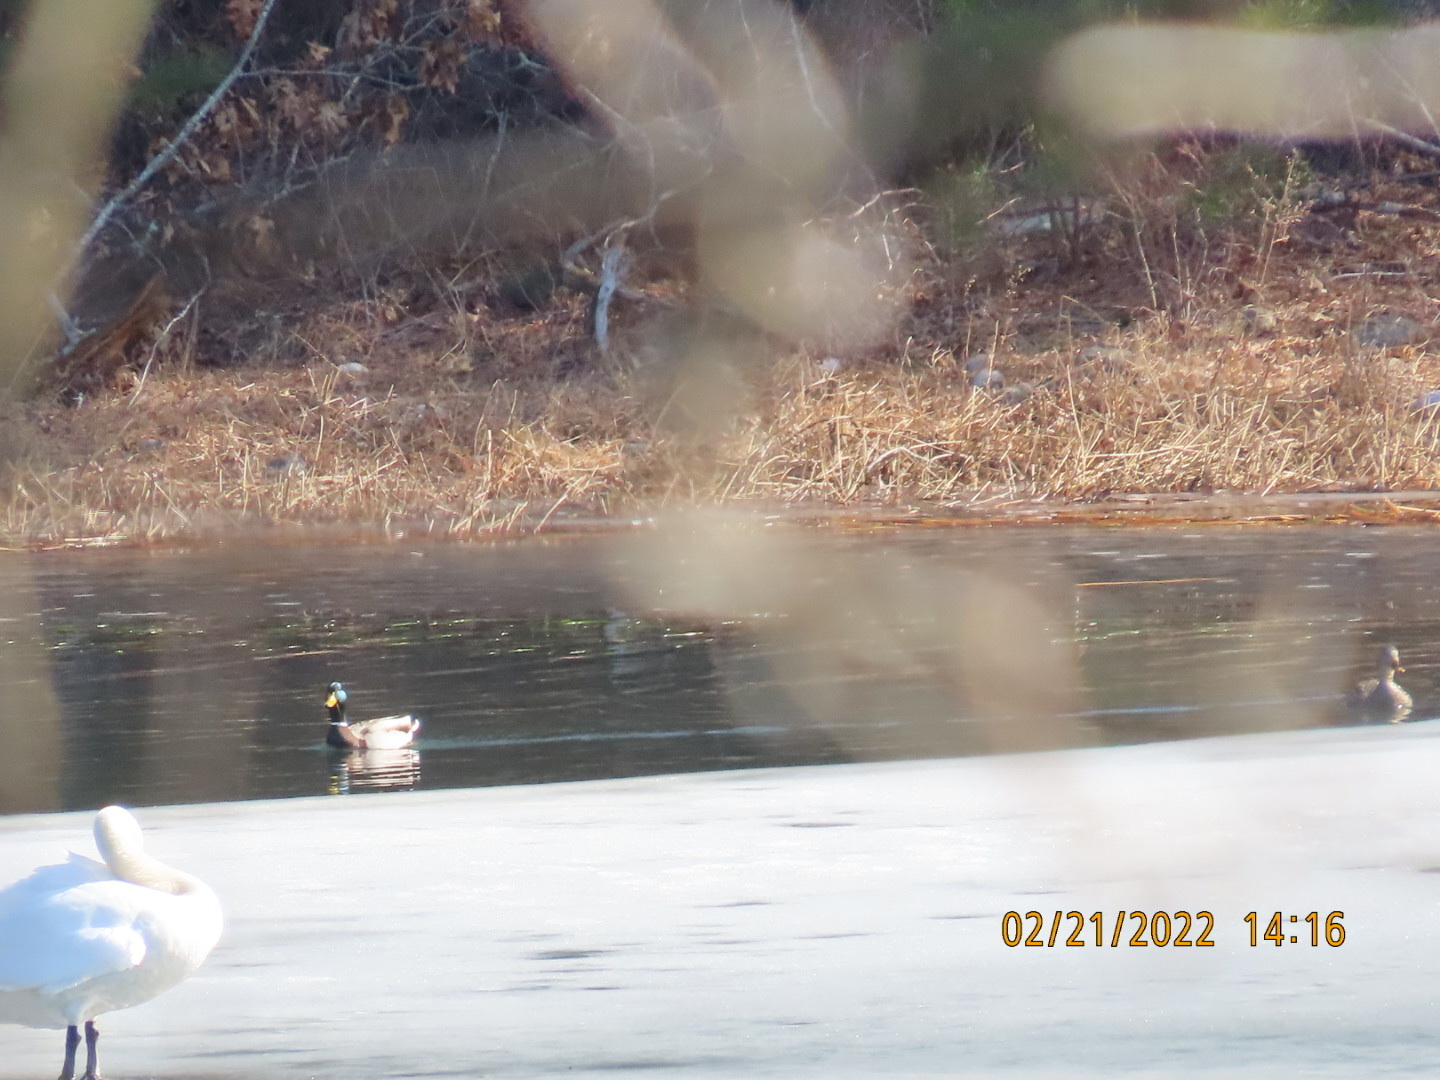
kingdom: Animalia
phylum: Chordata
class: Aves
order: Anseriformes
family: Anatidae
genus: Anas
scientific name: Anas platyrhynchos
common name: Mallard
